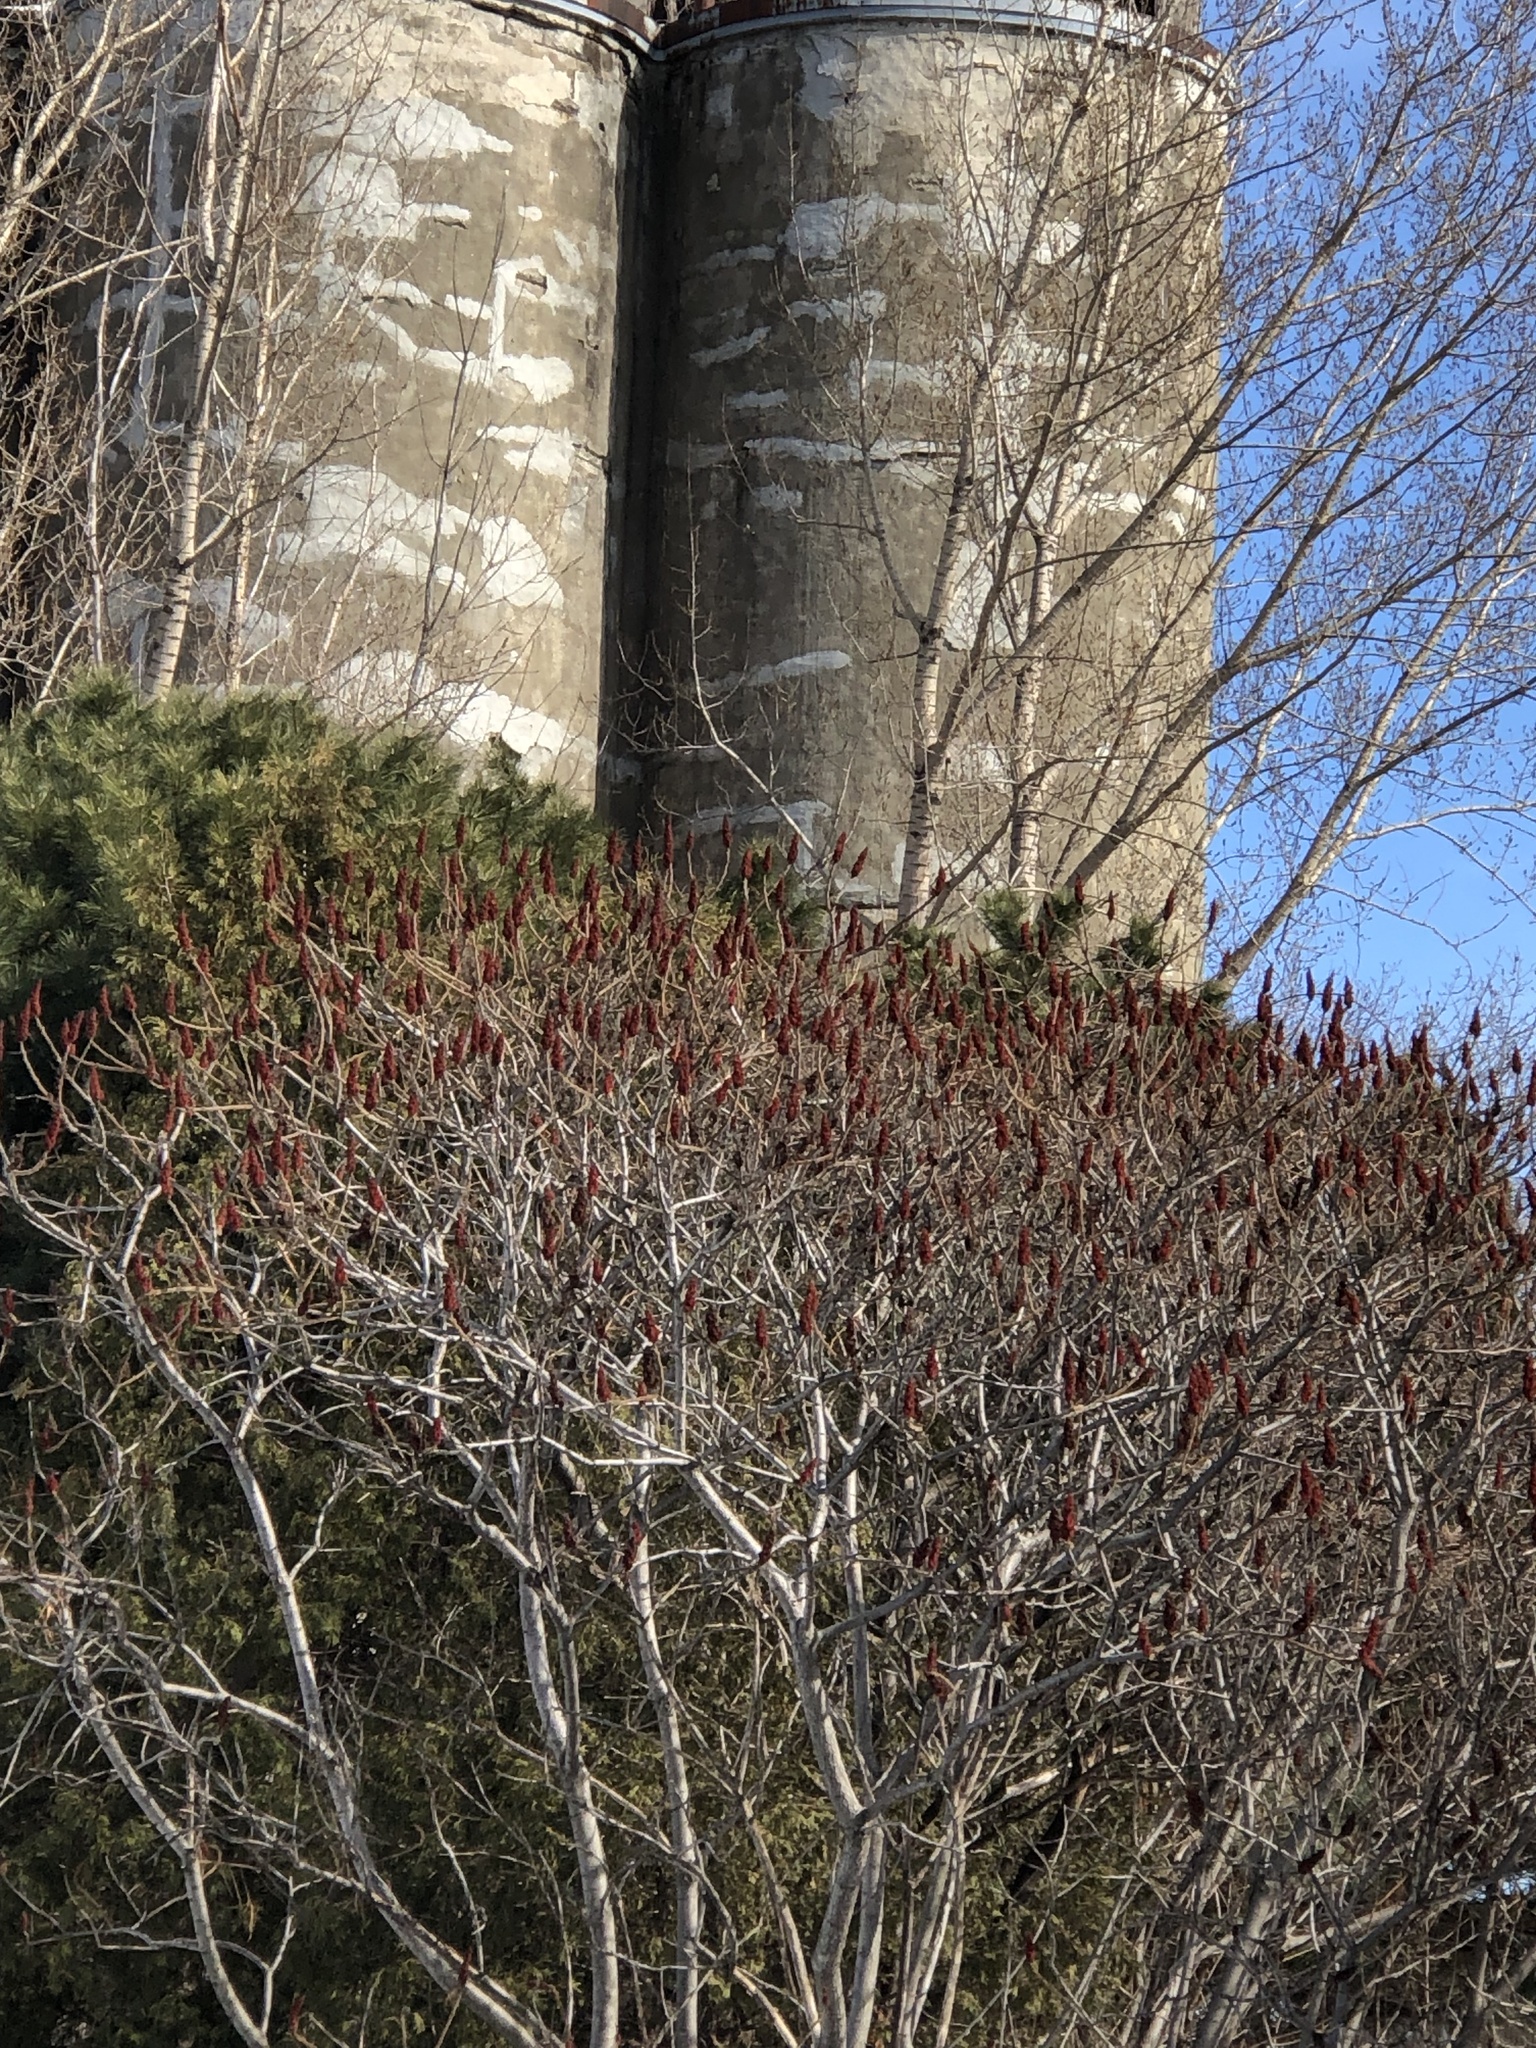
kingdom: Plantae
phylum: Tracheophyta
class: Magnoliopsida
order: Sapindales
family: Anacardiaceae
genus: Rhus
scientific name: Rhus typhina
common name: Staghorn sumac
